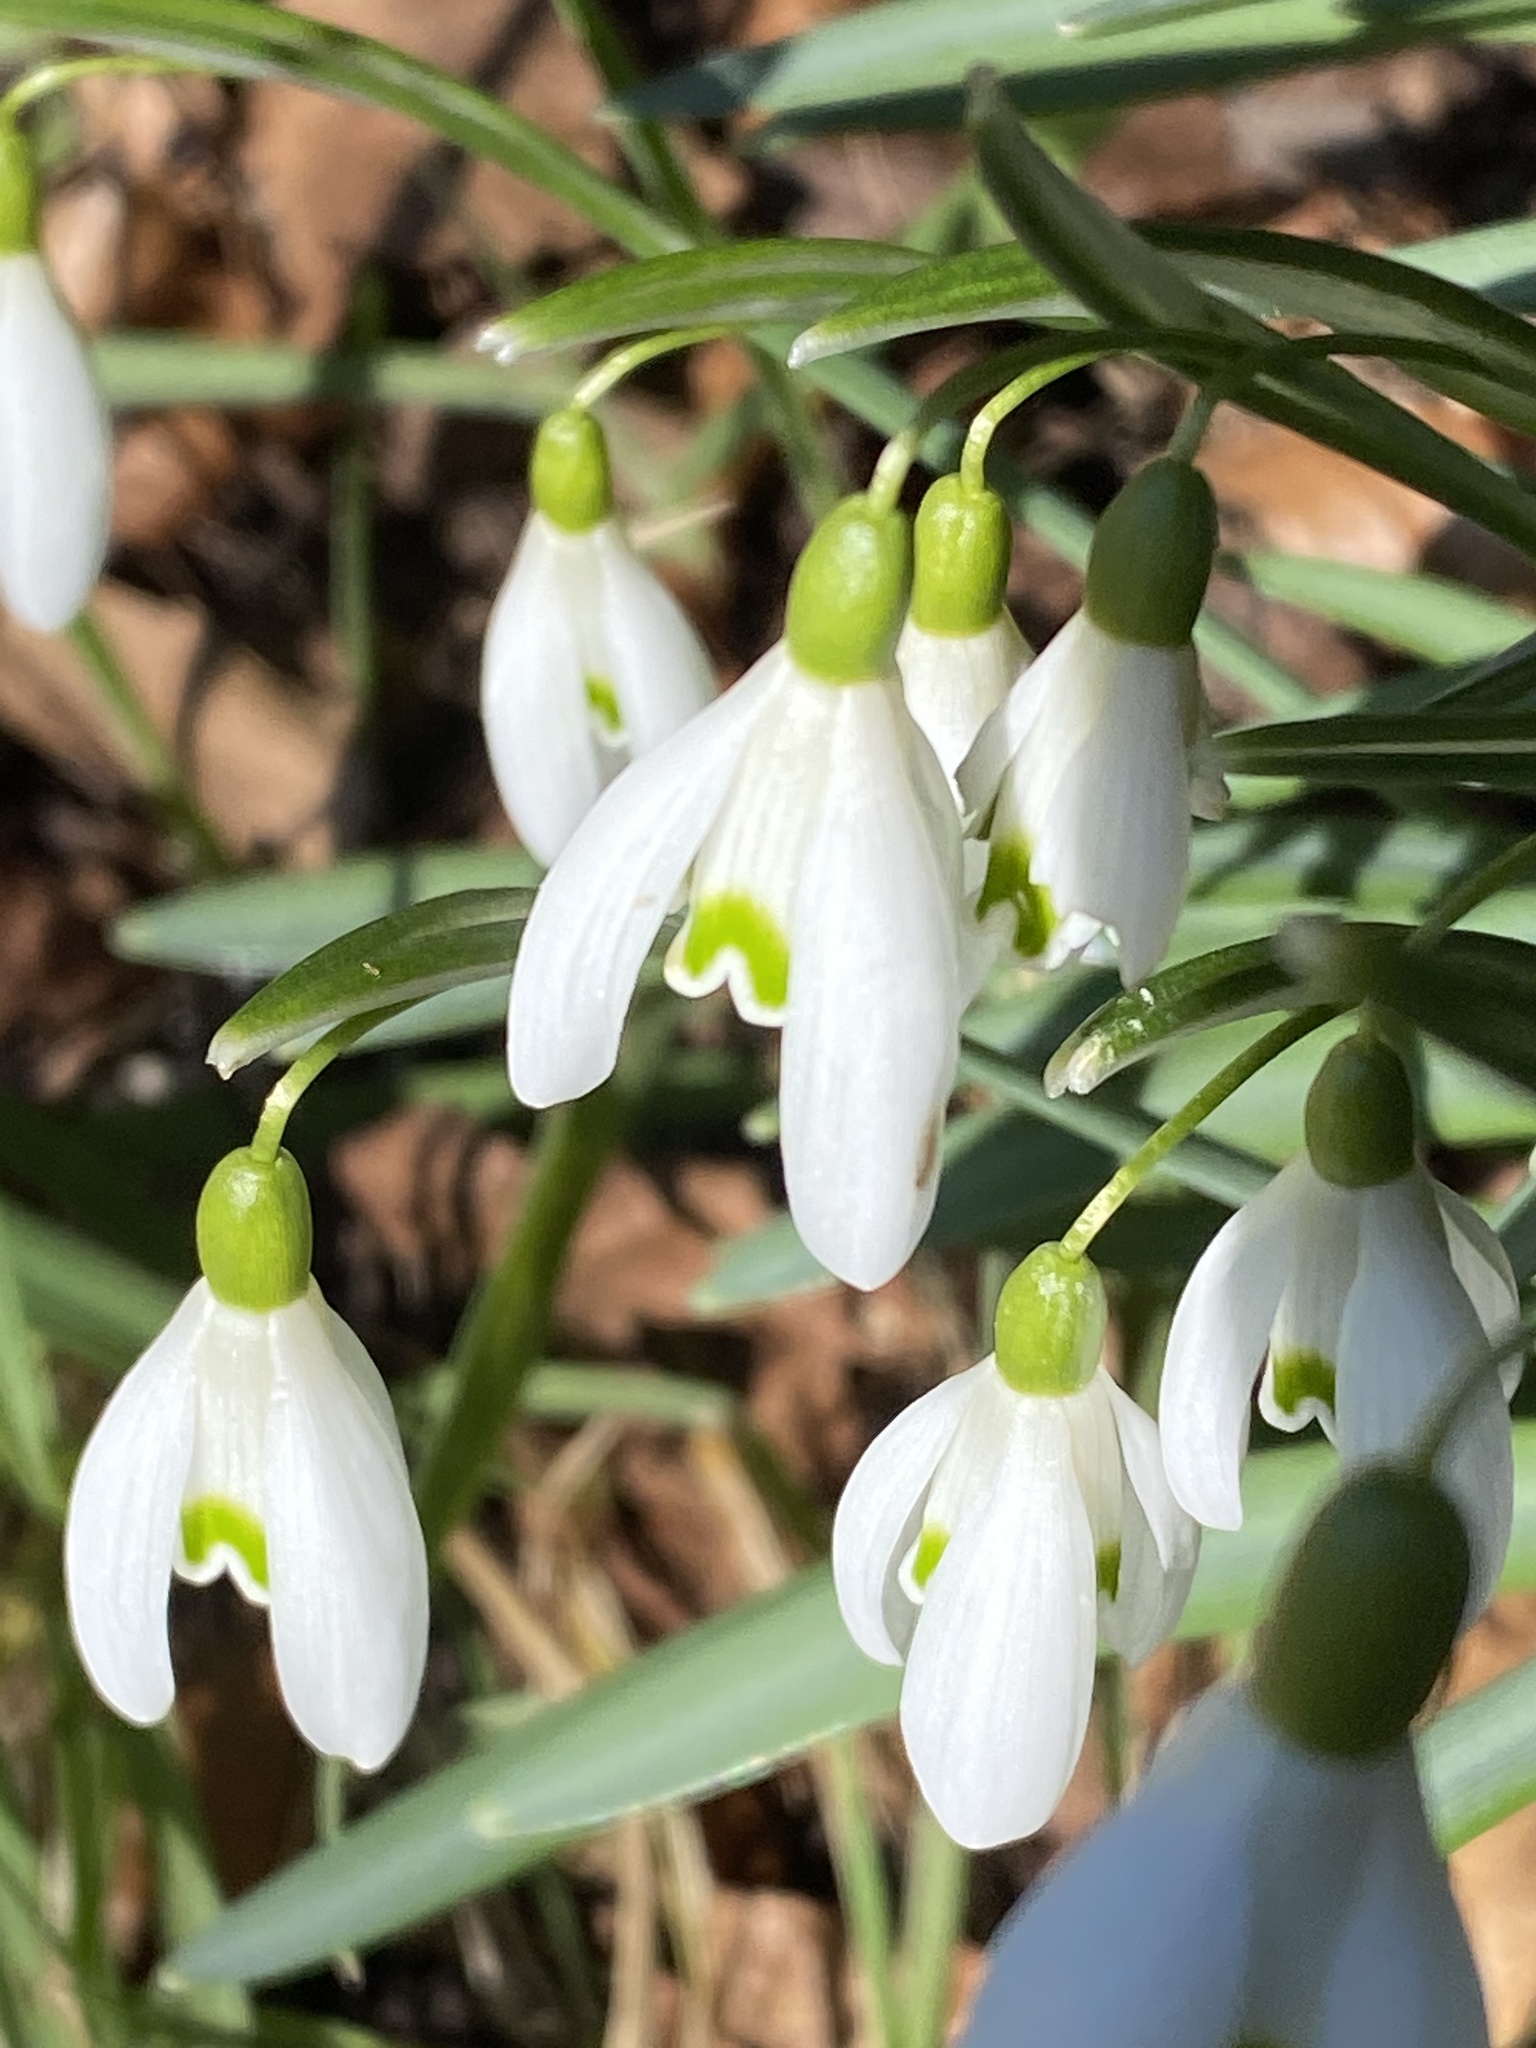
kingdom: Plantae
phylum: Tracheophyta
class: Liliopsida
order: Asparagales
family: Amaryllidaceae
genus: Galanthus
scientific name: Galanthus nivalis
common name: Snowdrop
